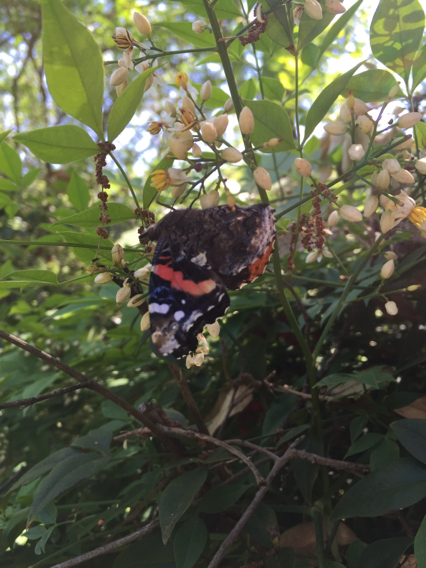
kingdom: Animalia
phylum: Arthropoda
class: Insecta
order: Lepidoptera
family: Nymphalidae
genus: Vanessa
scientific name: Vanessa atalanta
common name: Red admiral
